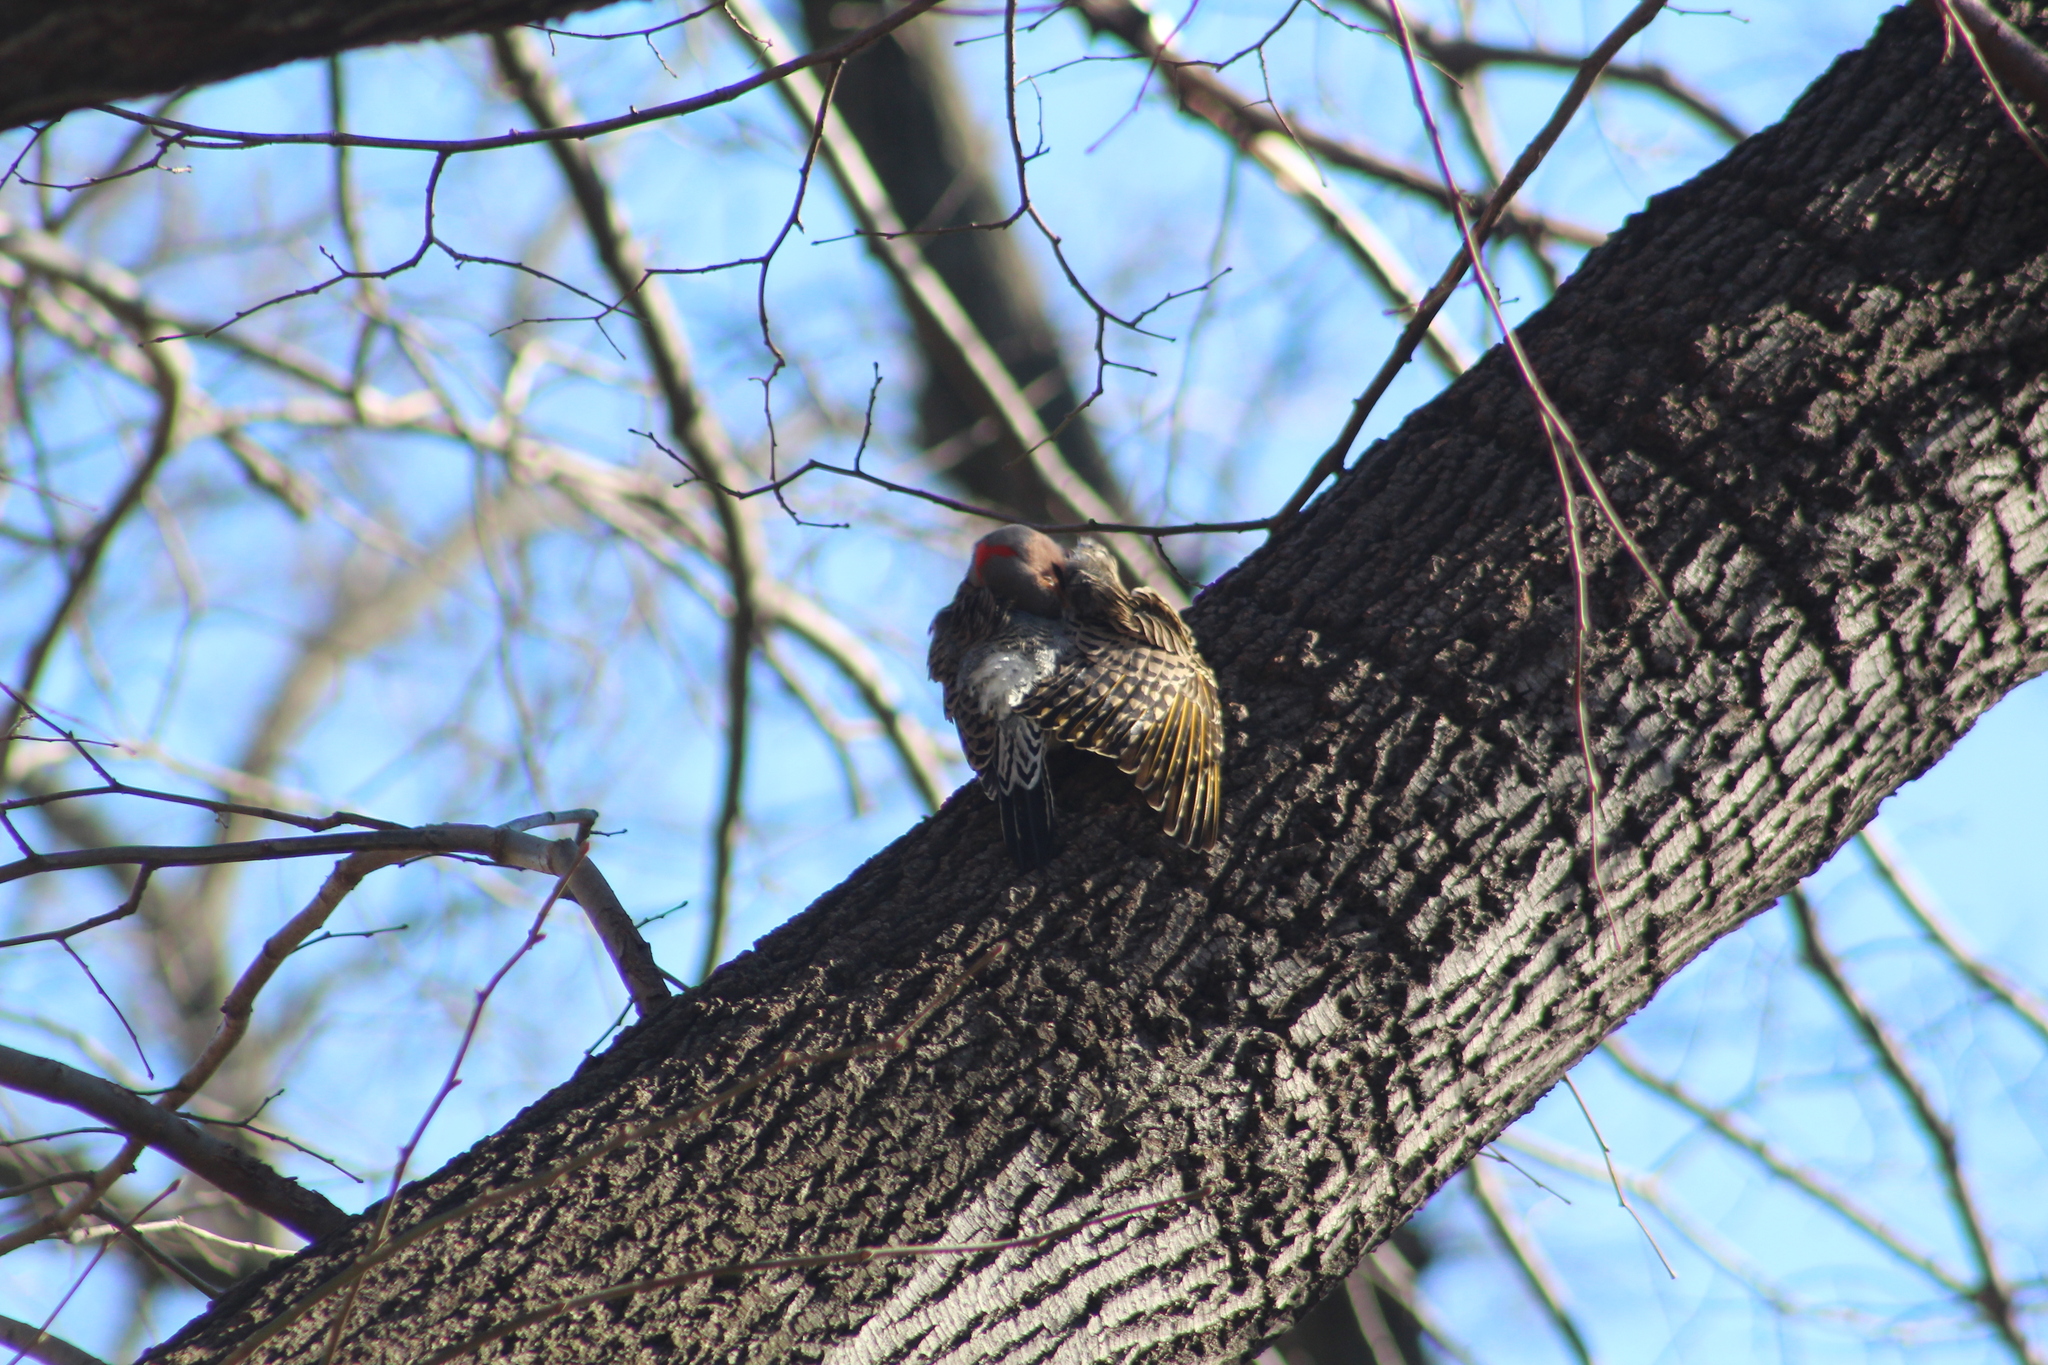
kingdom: Animalia
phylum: Chordata
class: Aves
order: Piciformes
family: Picidae
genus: Colaptes
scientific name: Colaptes auratus
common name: Northern flicker
